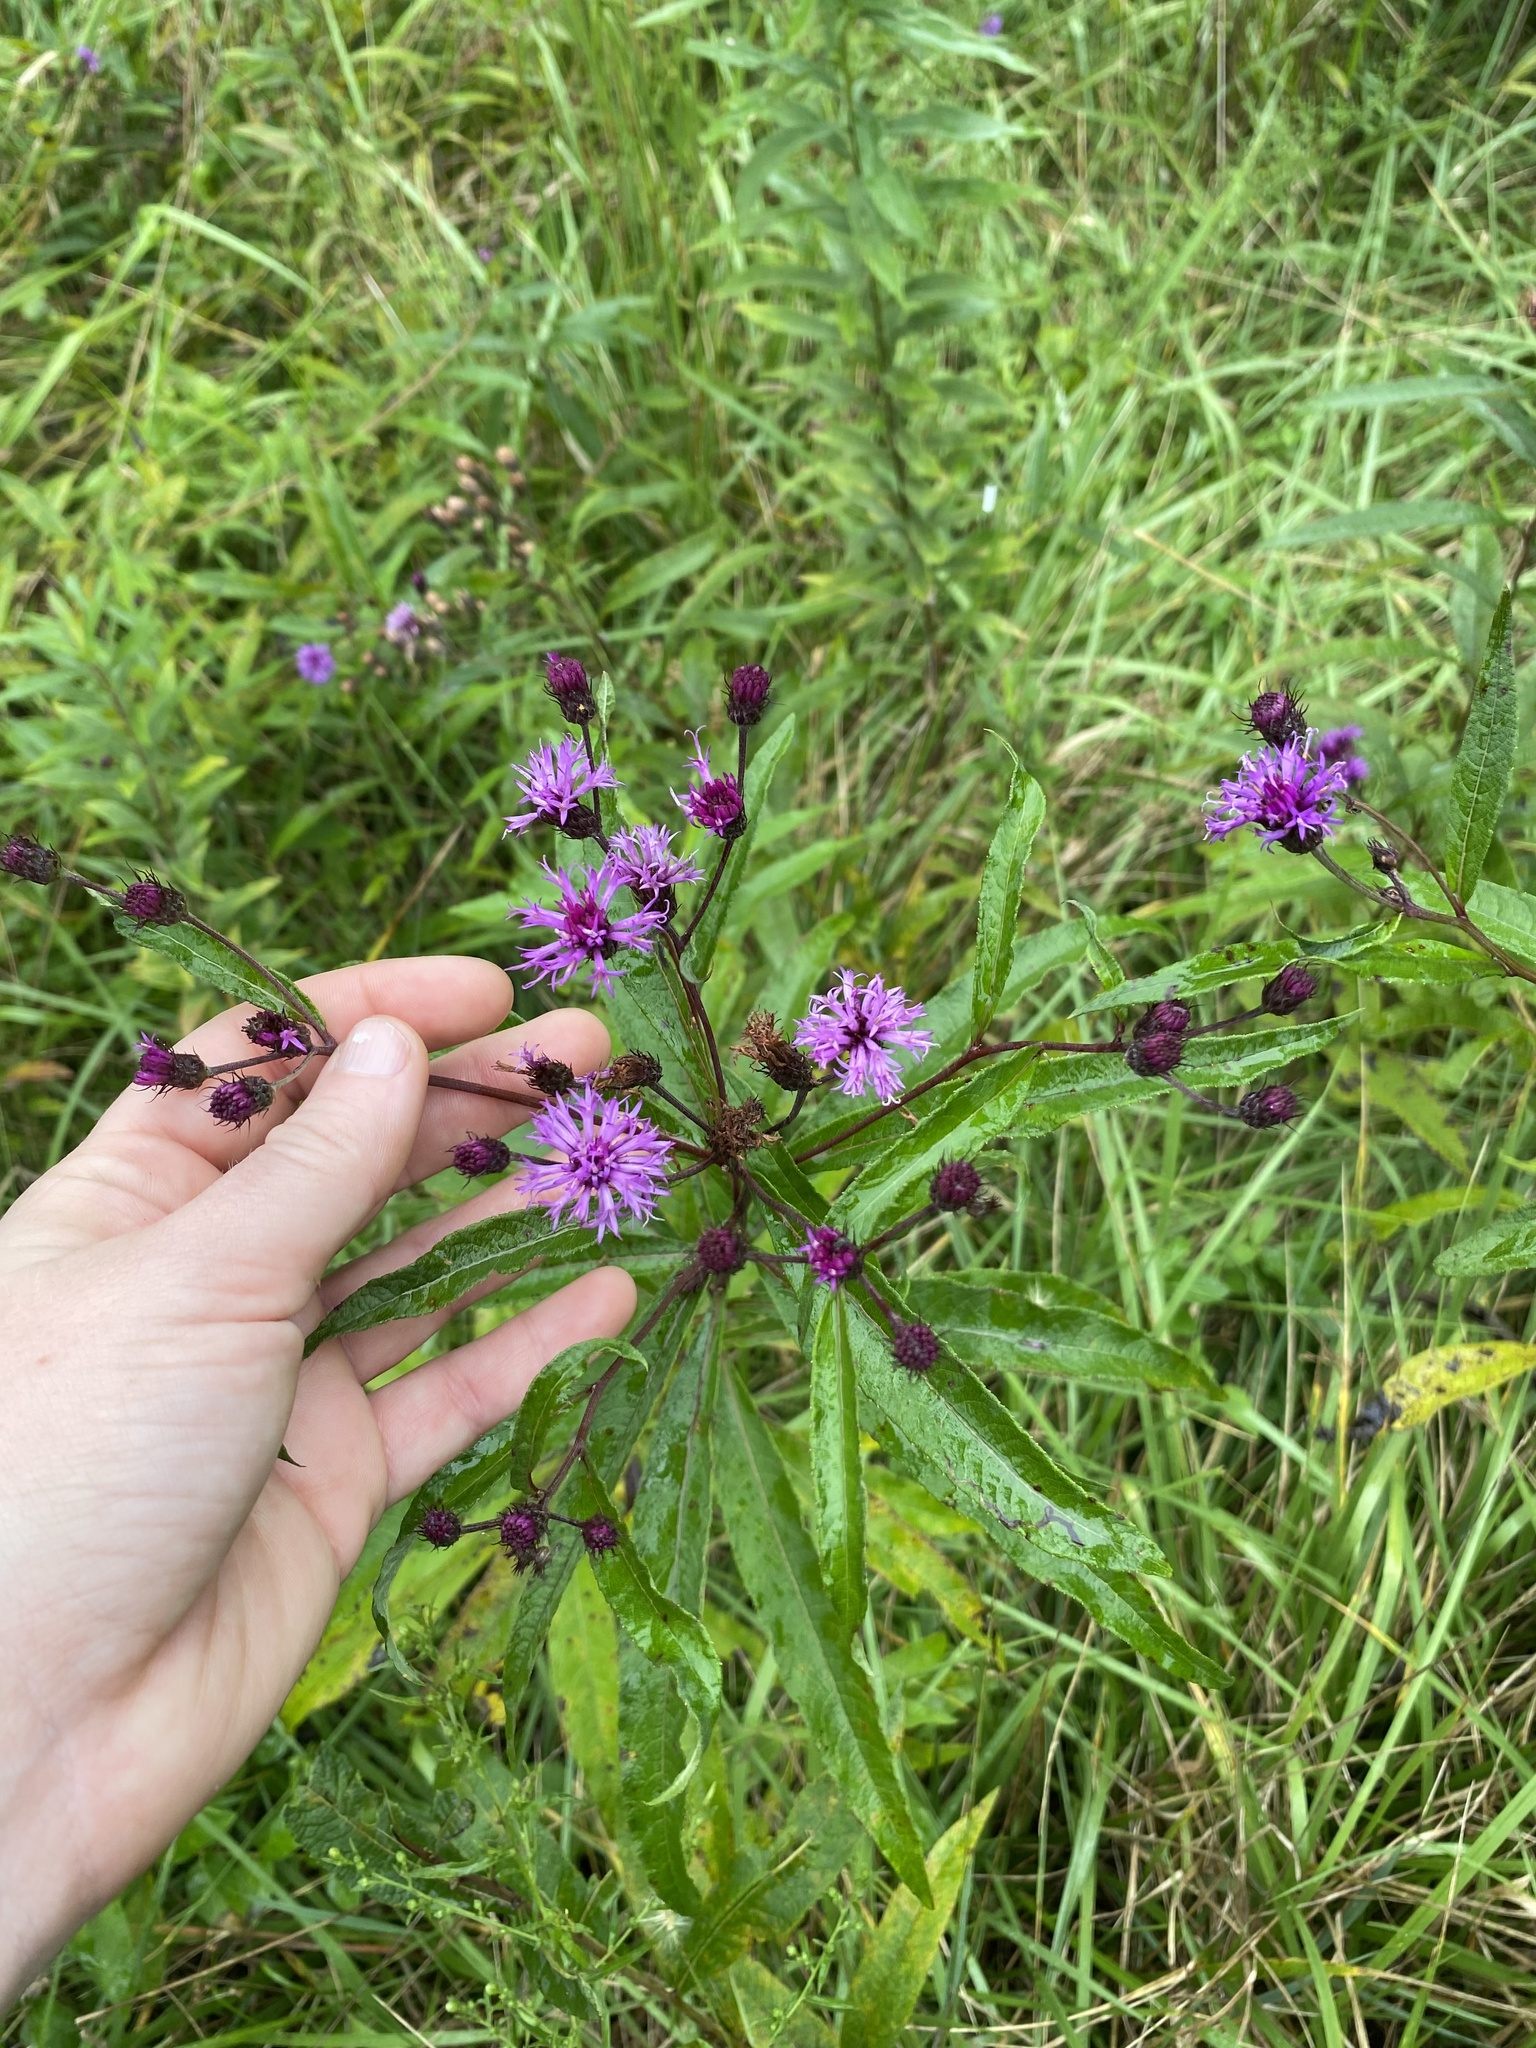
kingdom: Plantae
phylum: Tracheophyta
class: Magnoliopsida
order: Asterales
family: Asteraceae
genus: Vernonia
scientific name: Vernonia noveboracensis
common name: New york ironweed
